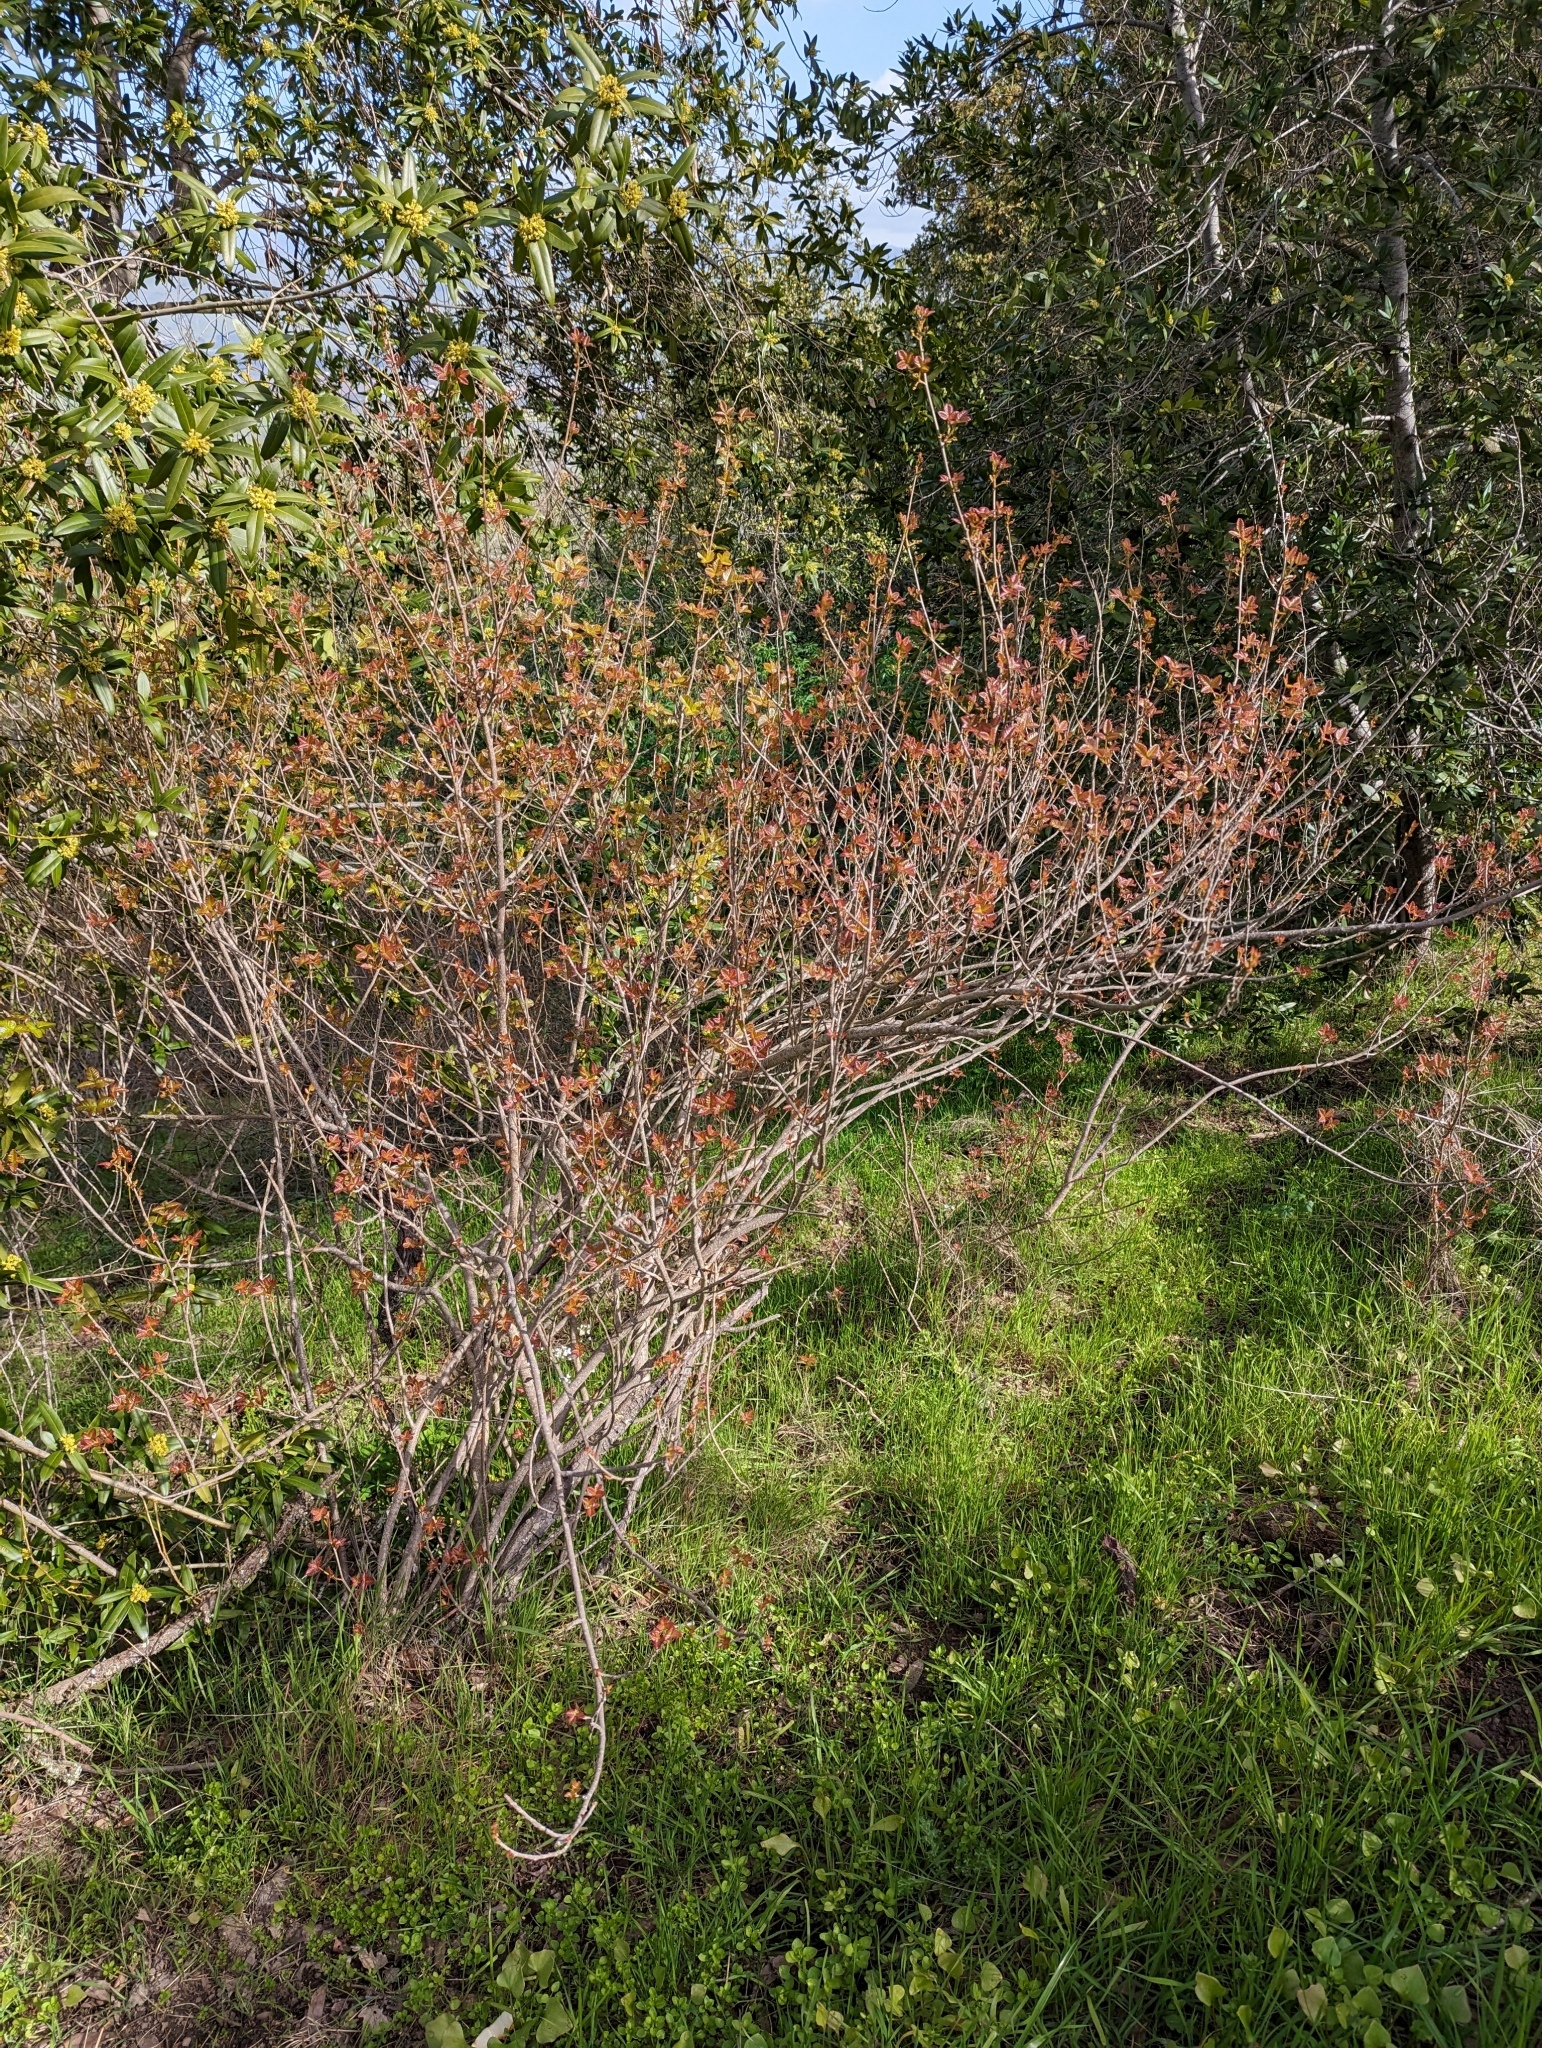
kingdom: Plantae
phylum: Tracheophyta
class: Magnoliopsida
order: Sapindales
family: Anacardiaceae
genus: Toxicodendron
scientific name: Toxicodendron diversilobum
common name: Pacific poison-oak
